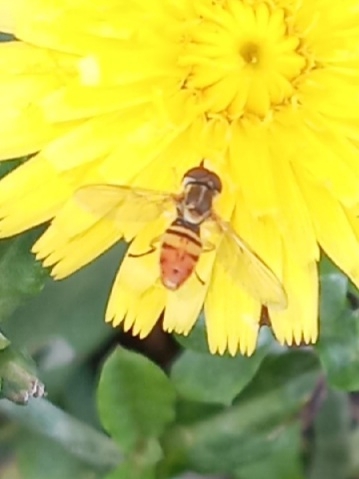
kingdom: Animalia
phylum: Arthropoda
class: Insecta
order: Diptera
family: Syrphidae
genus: Toxomerus
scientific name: Toxomerus marginatus
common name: Syrphid fly
